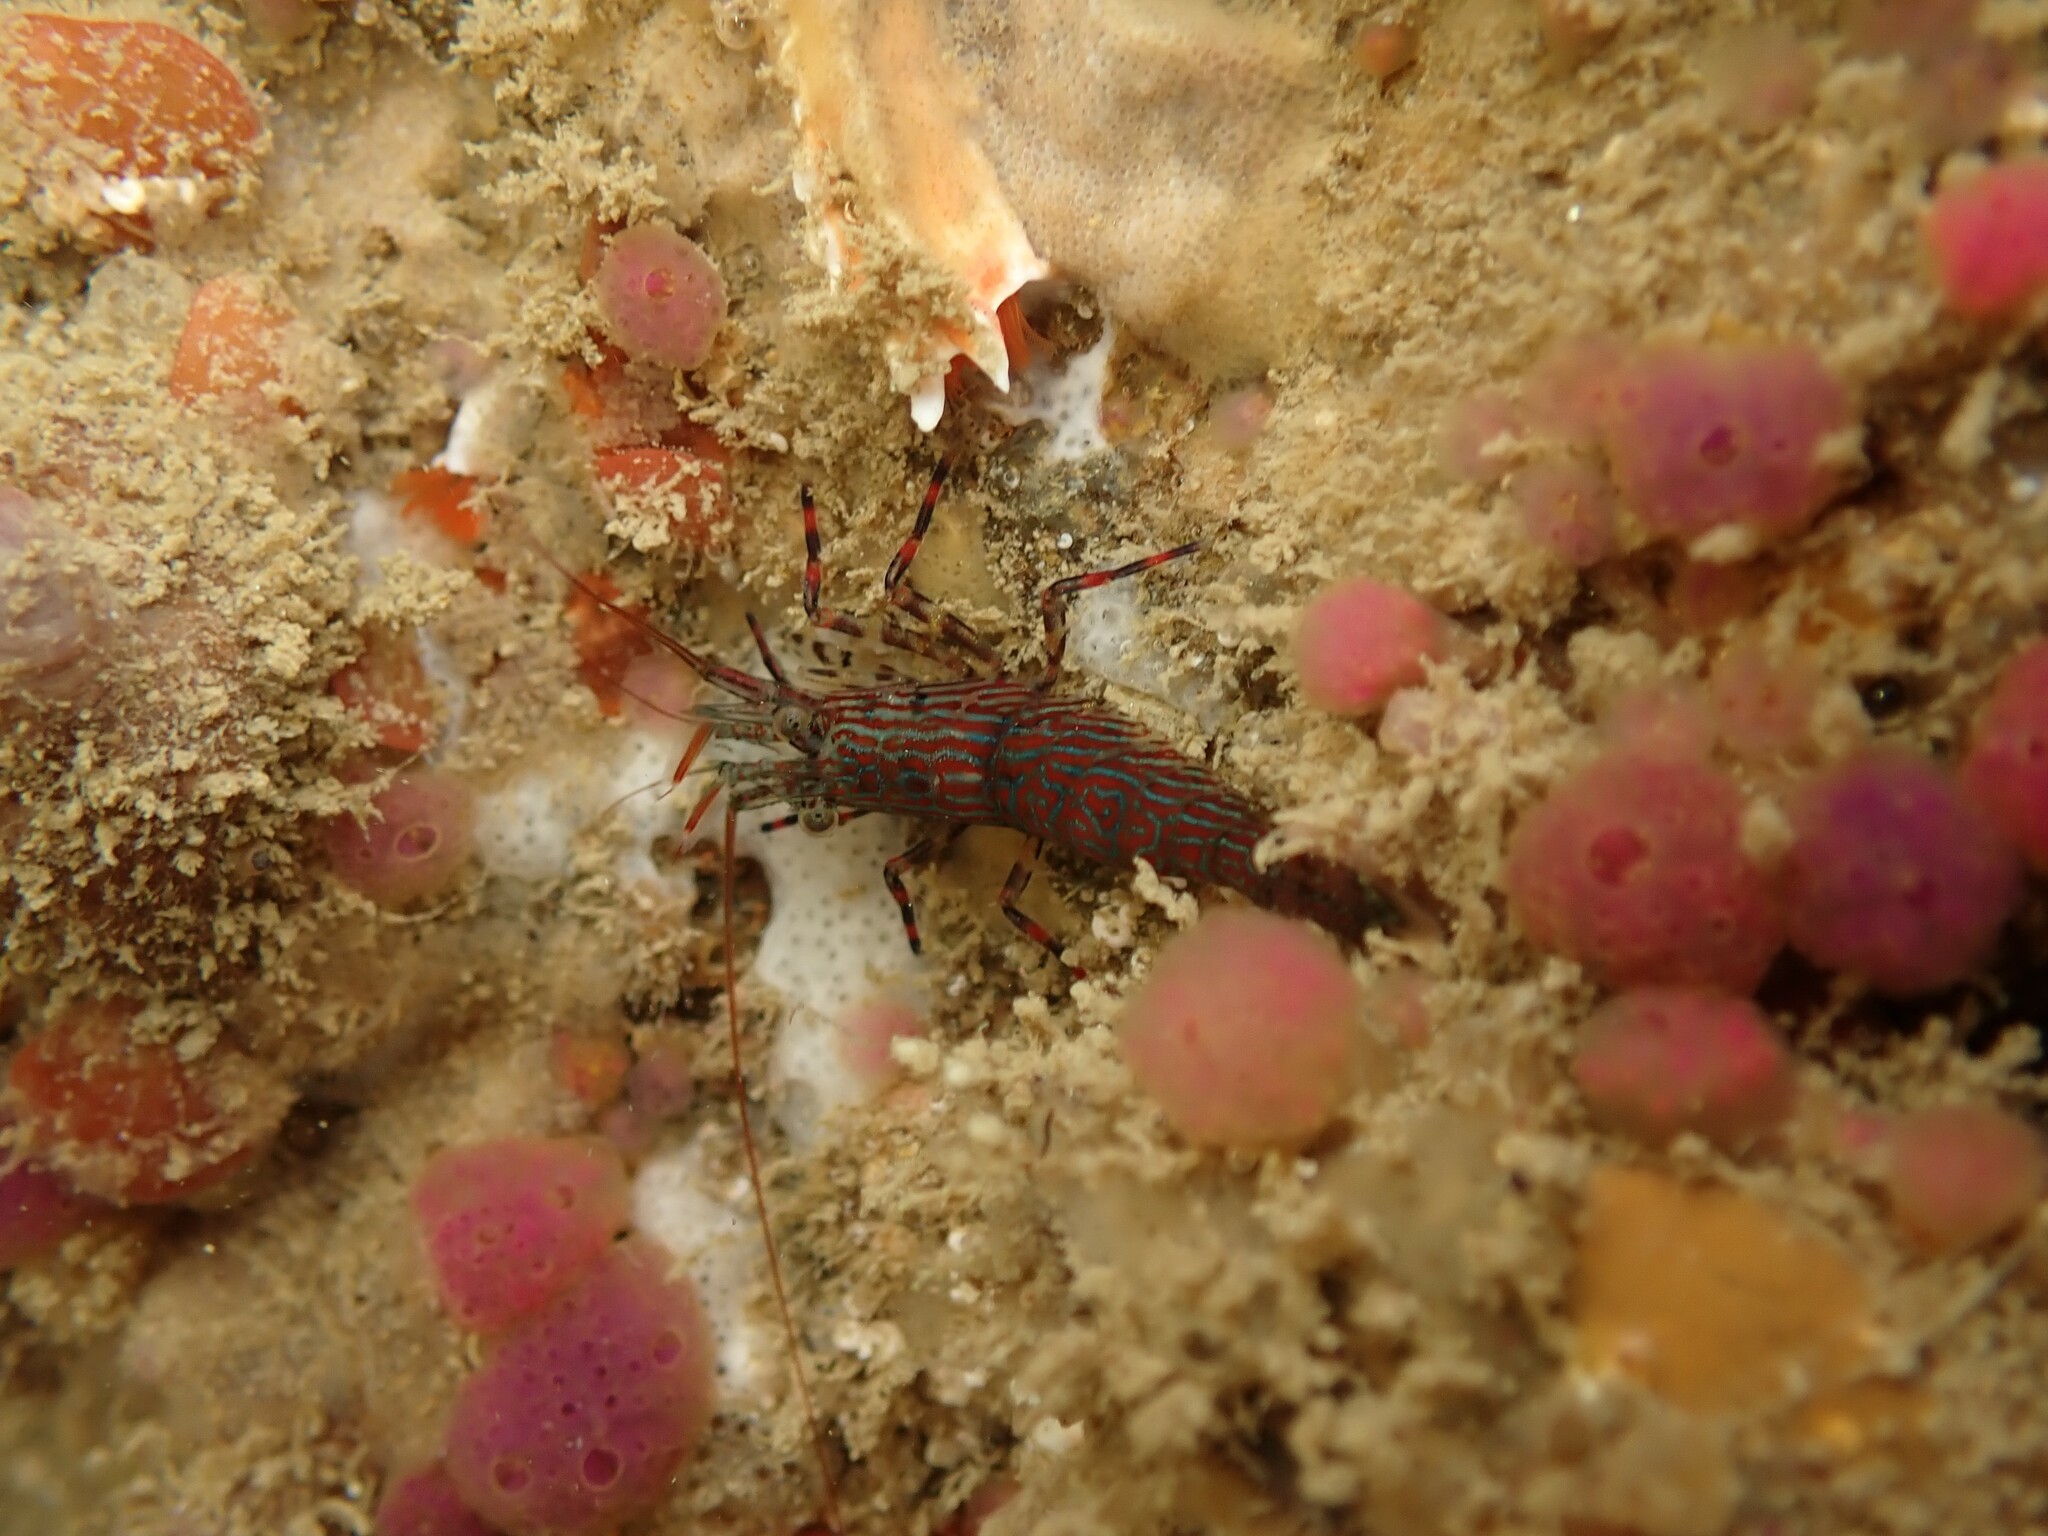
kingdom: Animalia
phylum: Arthropoda
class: Malacostraca
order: Decapoda
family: Hippolytidae
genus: Alope
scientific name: Alope spinifrons
